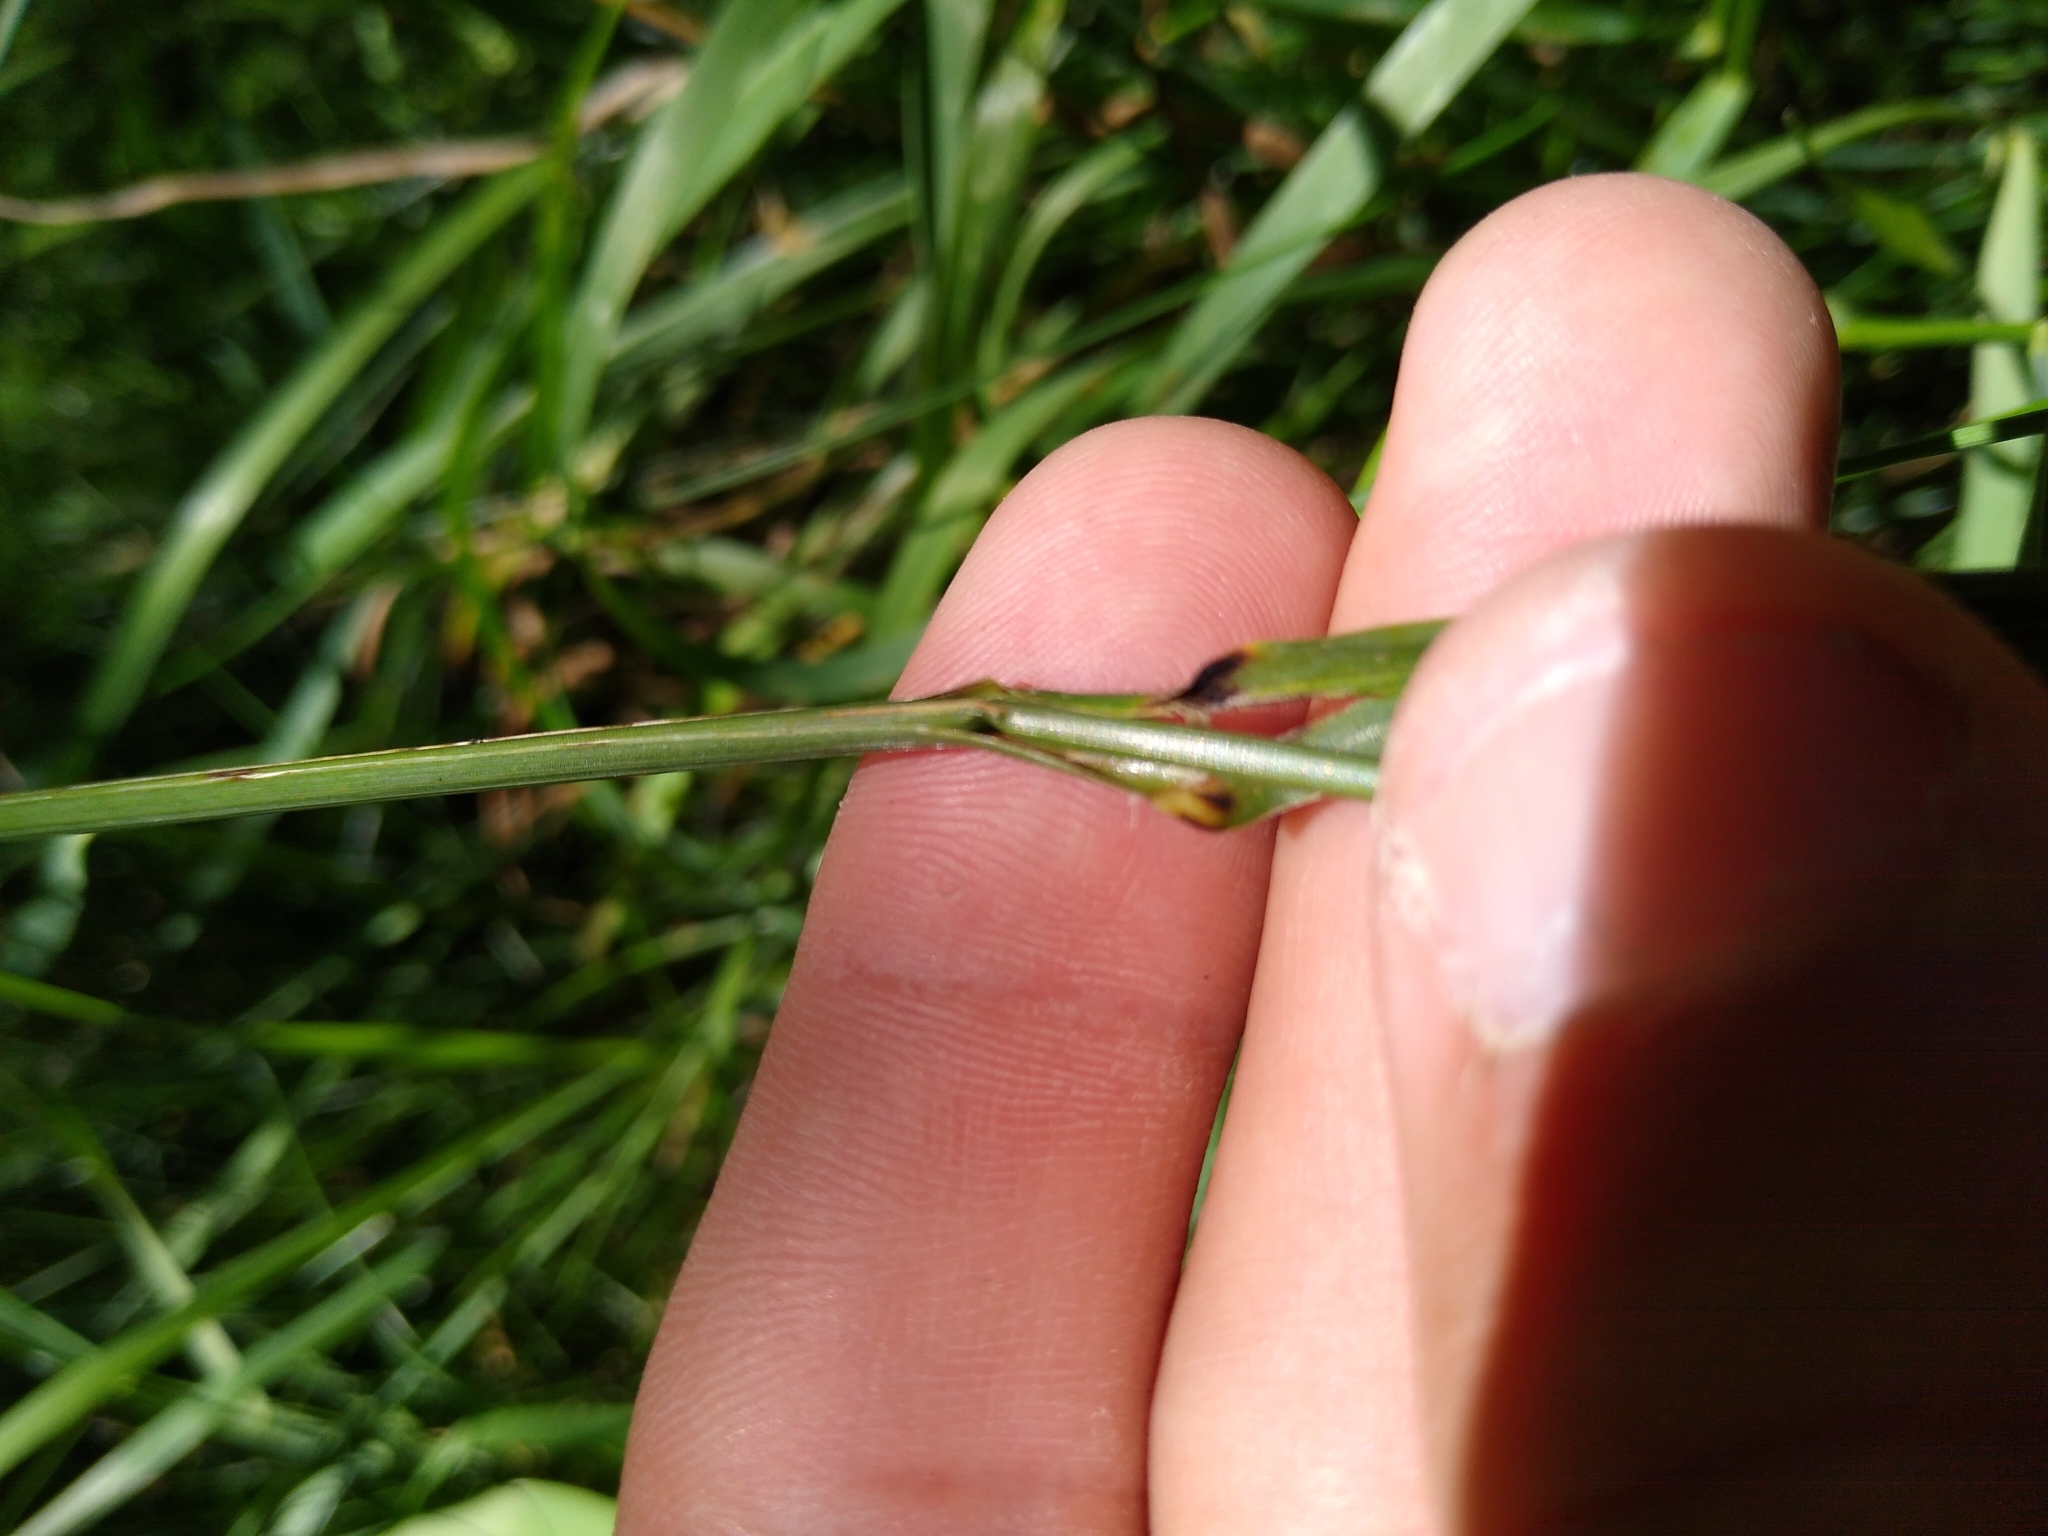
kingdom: Plantae
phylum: Tracheophyta
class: Liliopsida
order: Poales
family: Poaceae
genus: Bromus
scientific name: Bromus inermis
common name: Smooth brome
